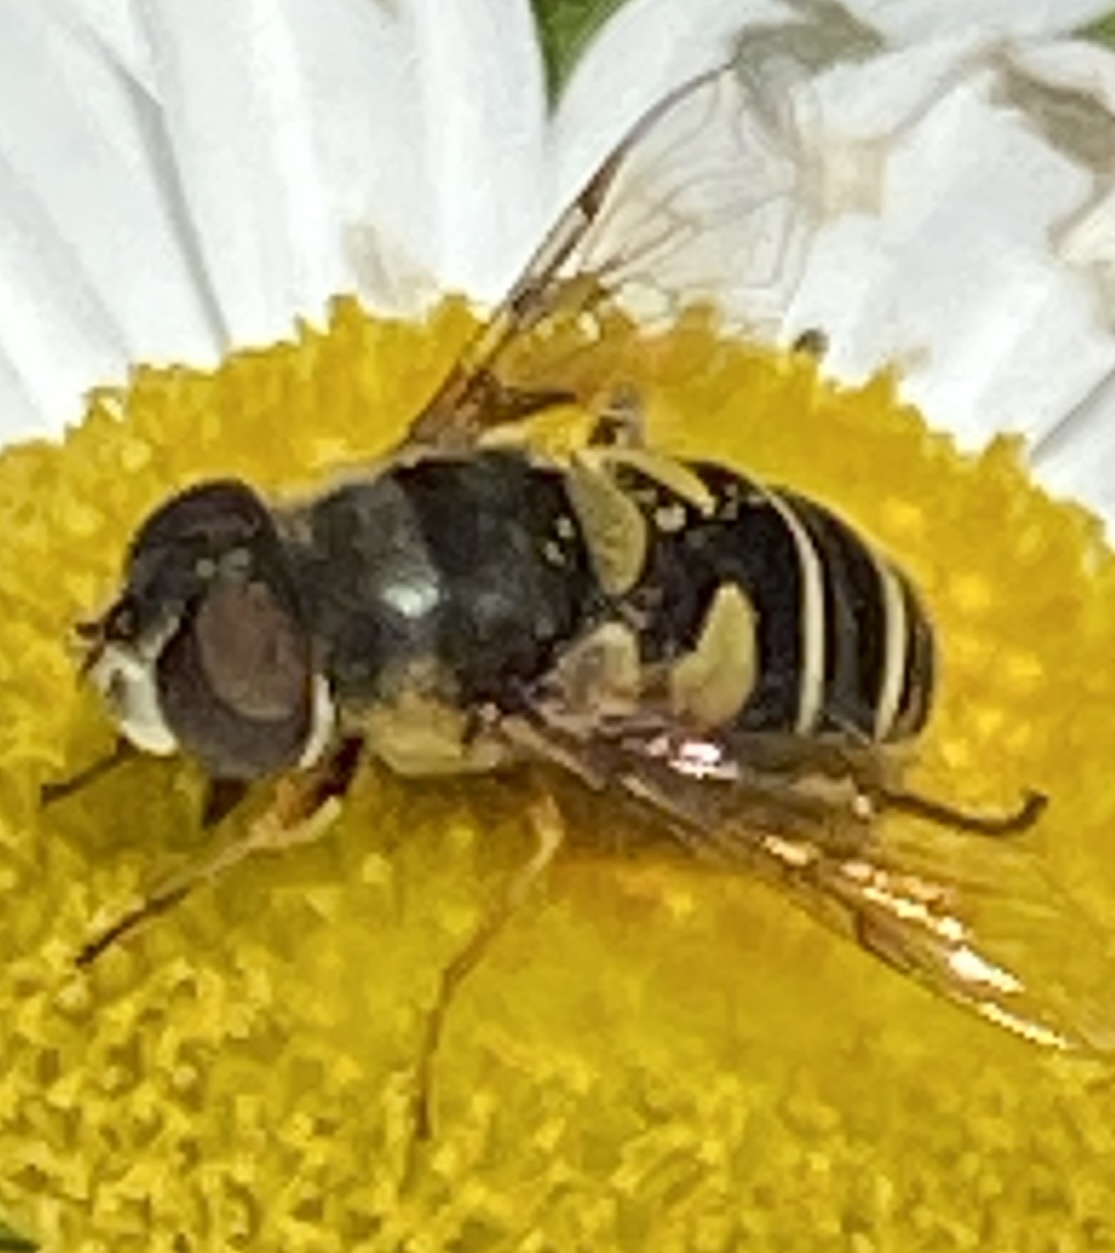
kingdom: Animalia
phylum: Arthropoda
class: Insecta
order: Diptera
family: Syrphidae
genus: Eristalis
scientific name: Eristalis transversa
